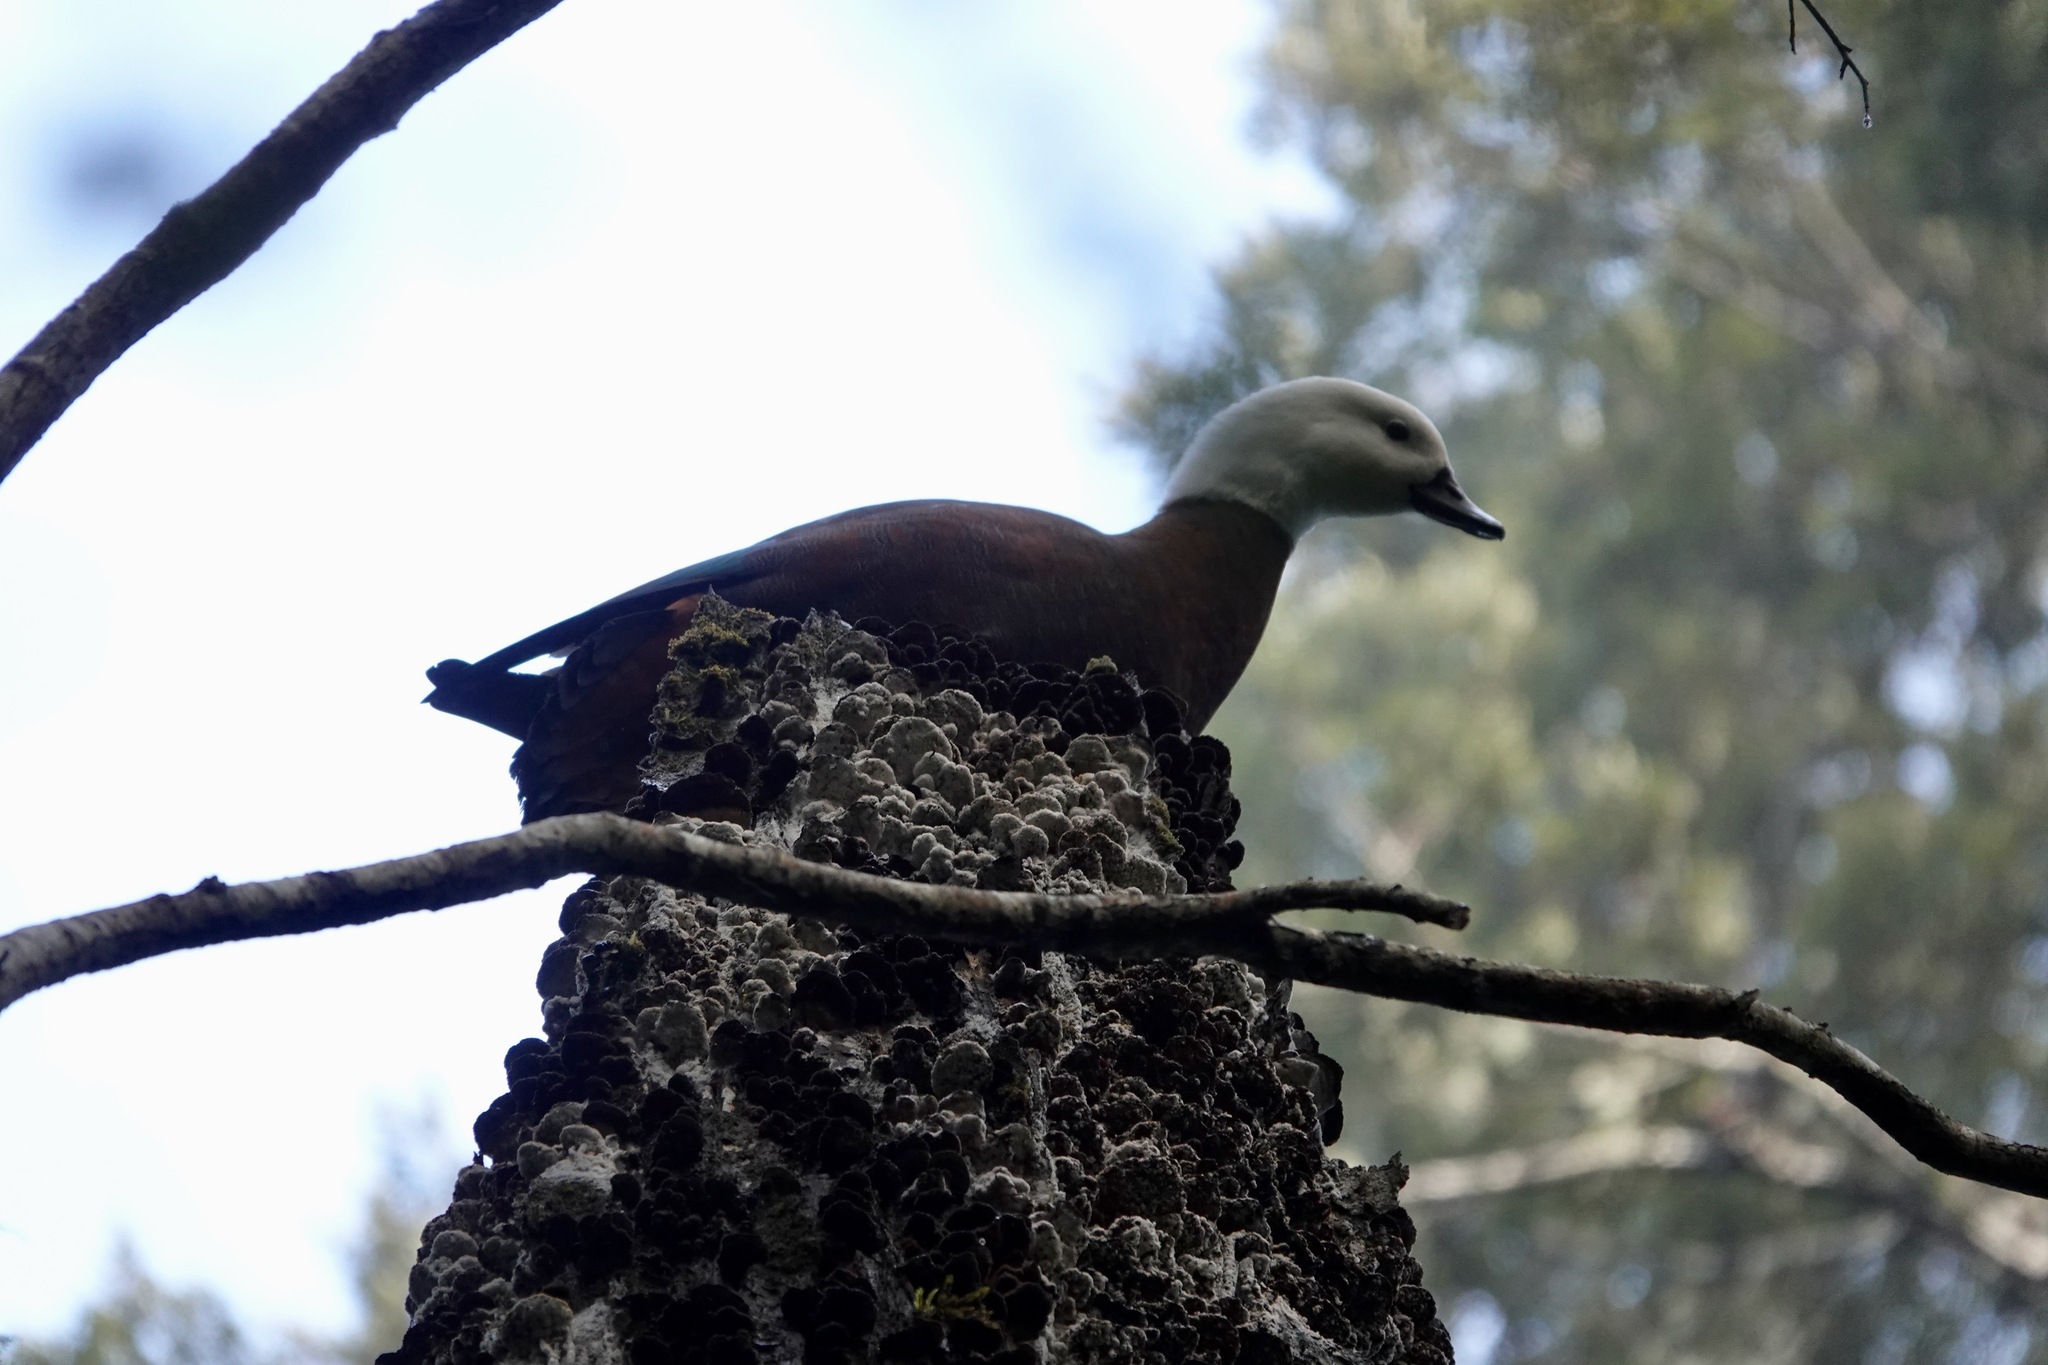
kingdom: Animalia
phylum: Chordata
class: Aves
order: Anseriformes
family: Anatidae
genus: Tadorna
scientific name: Tadorna variegata
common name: Paradise shelduck
